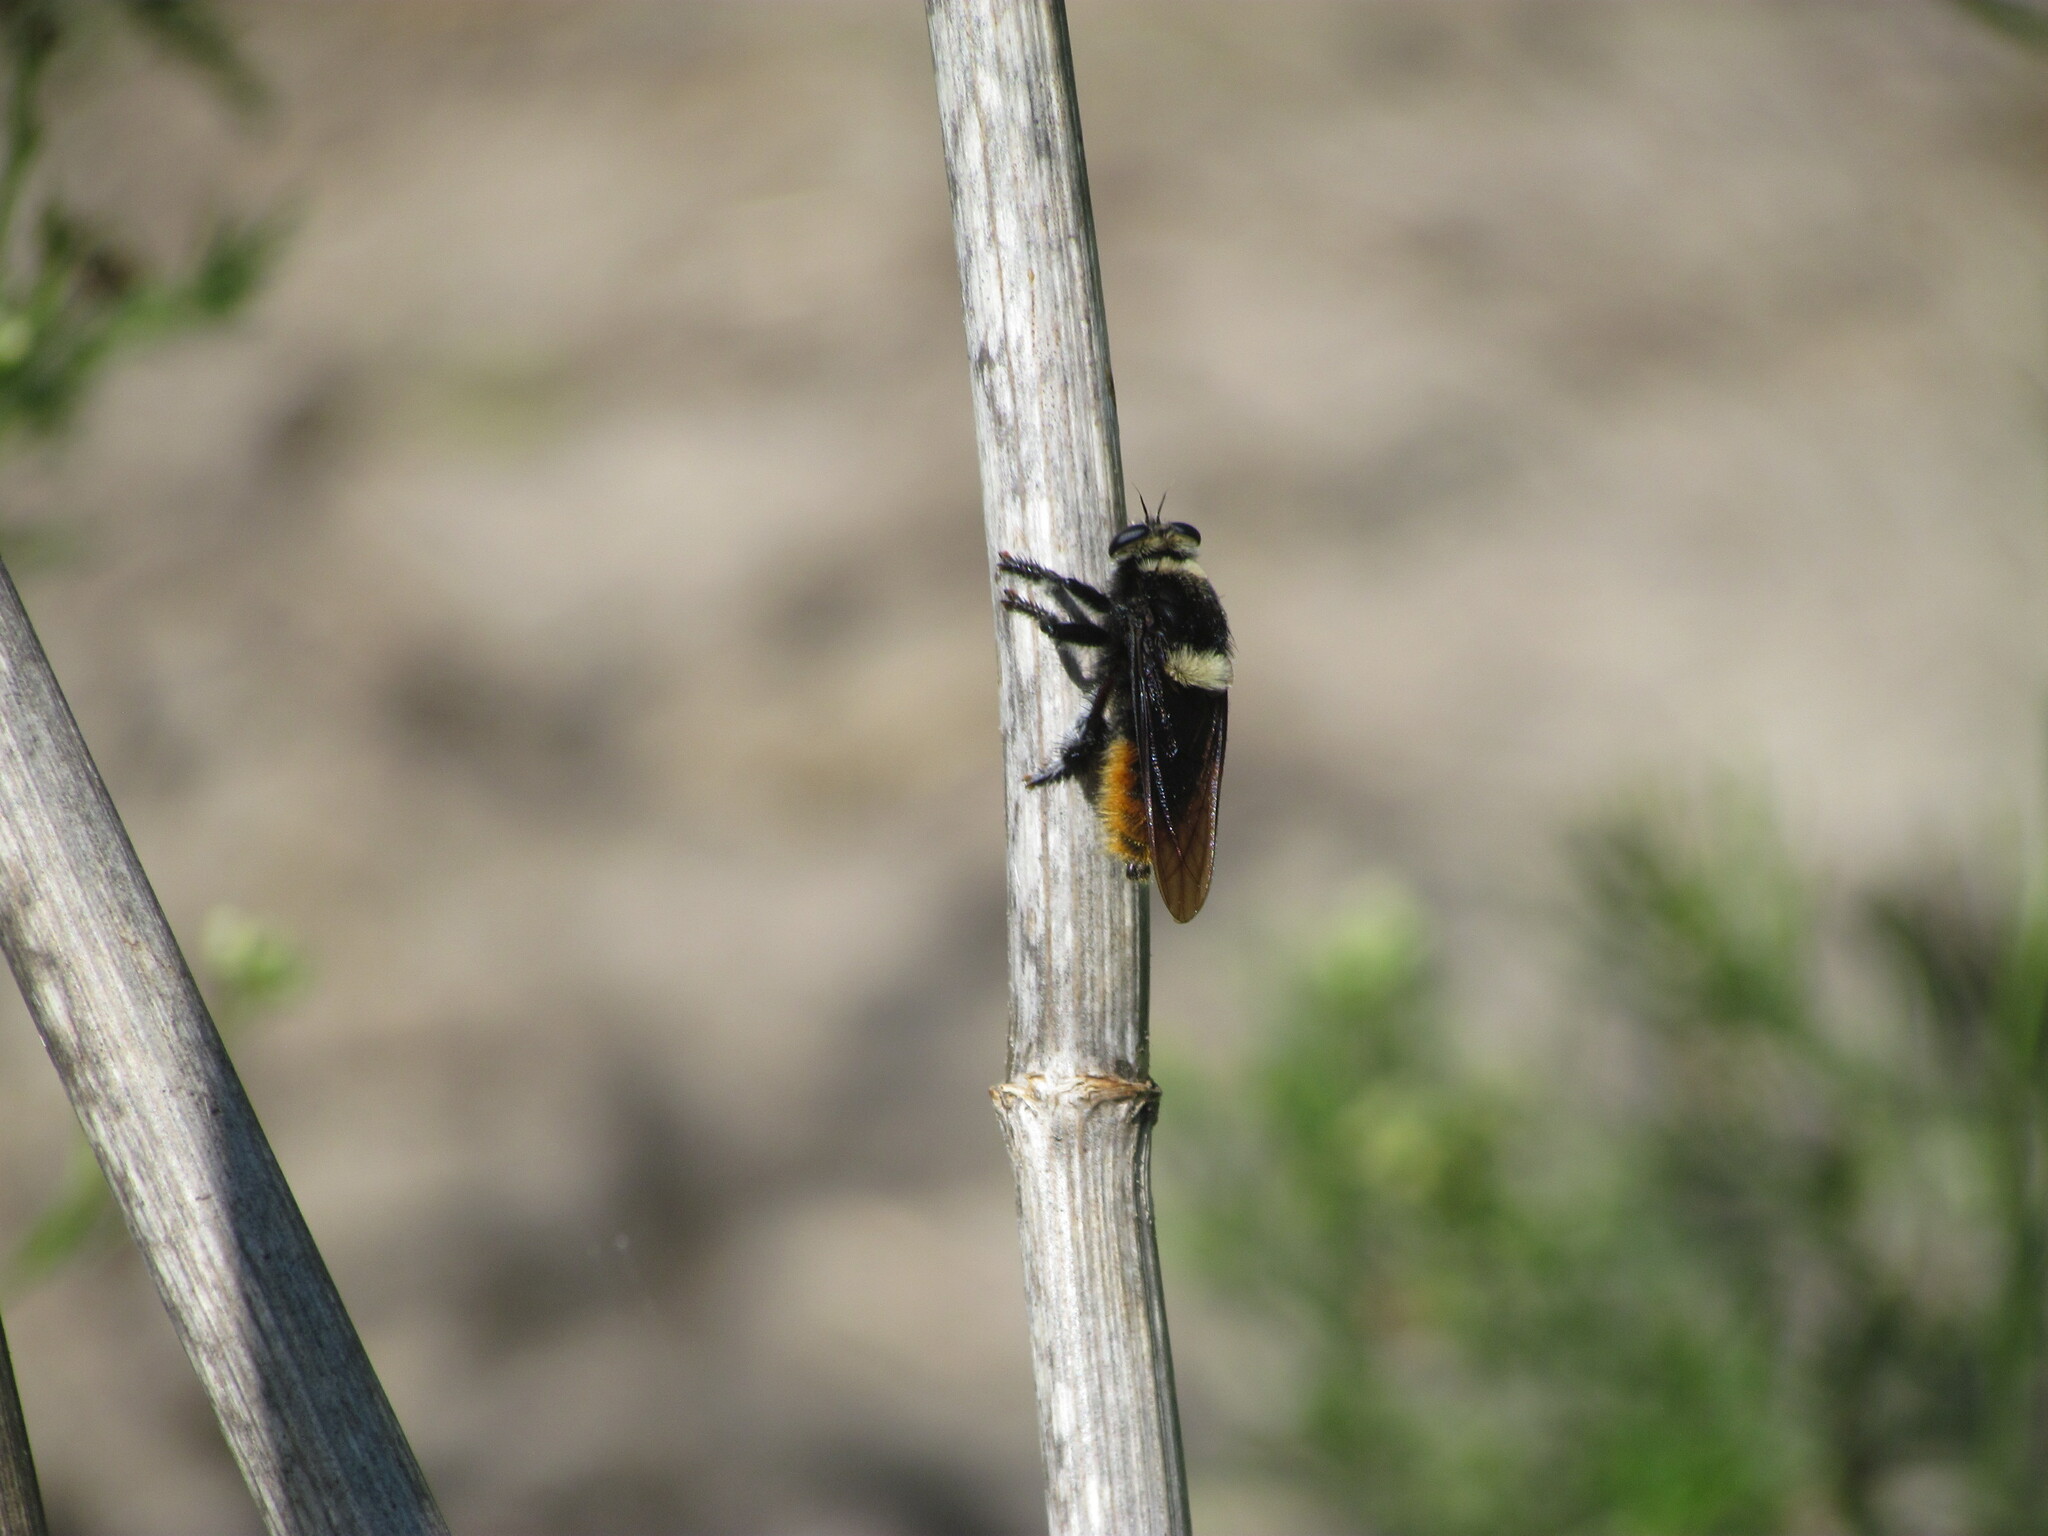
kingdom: Animalia
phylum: Arthropoda
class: Insecta
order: Diptera
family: Asilidae
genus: Mallophora
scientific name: Mallophora ruficauda
